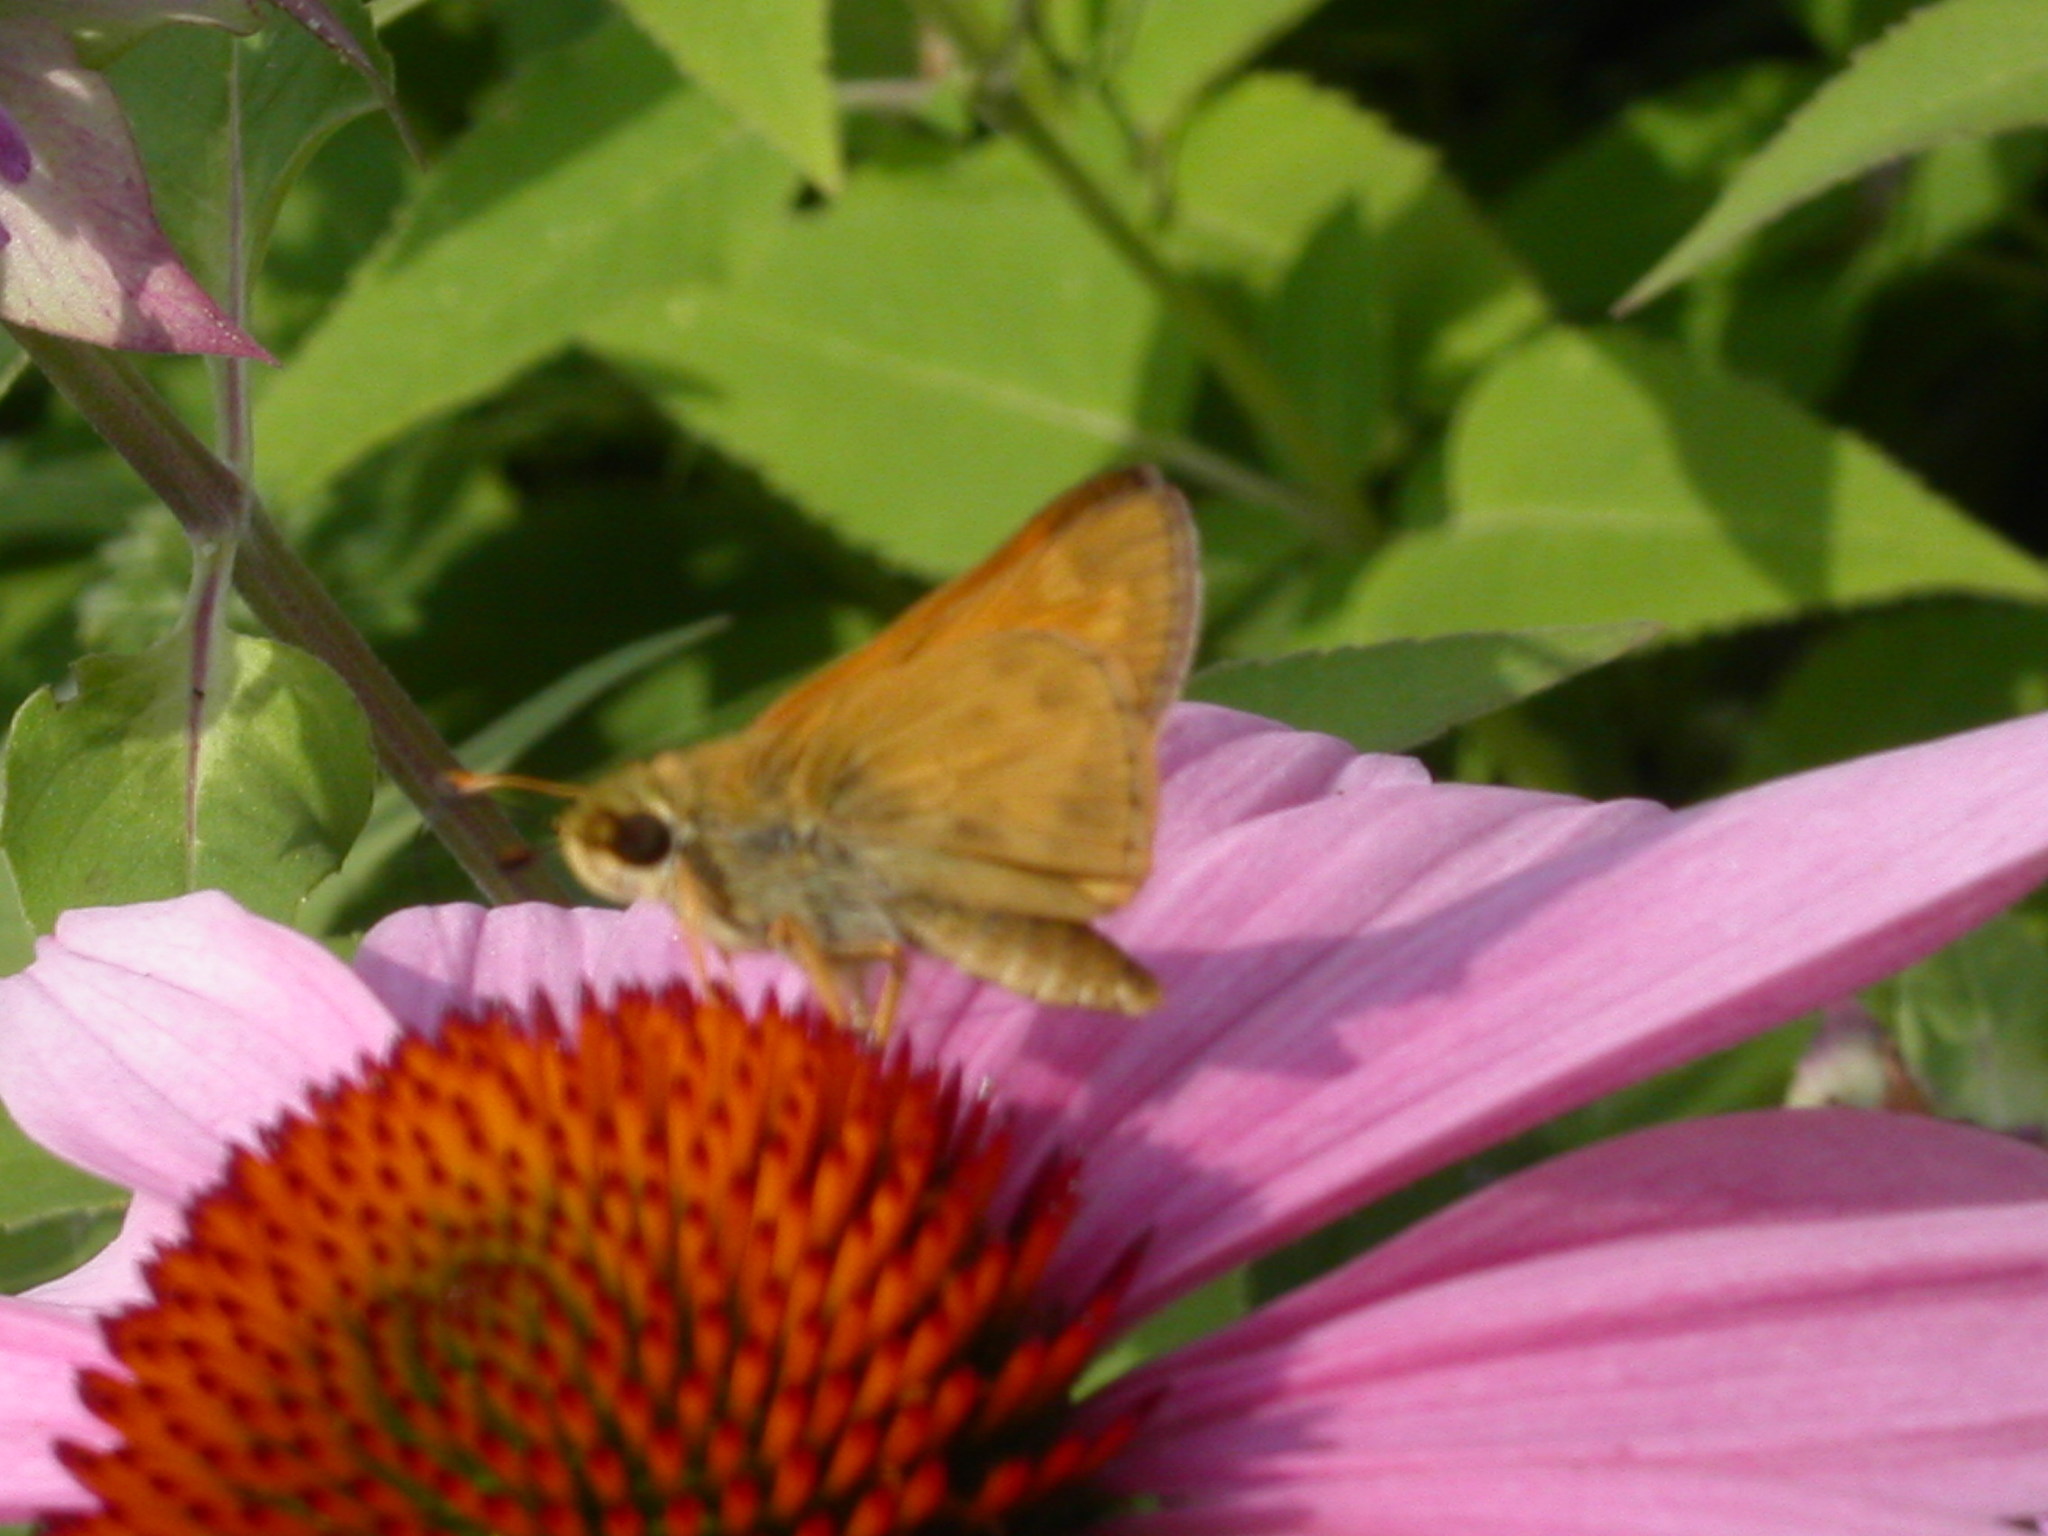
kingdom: Animalia
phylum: Arthropoda
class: Insecta
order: Lepidoptera
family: Hesperiidae
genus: Atalopedes
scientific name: Atalopedes
